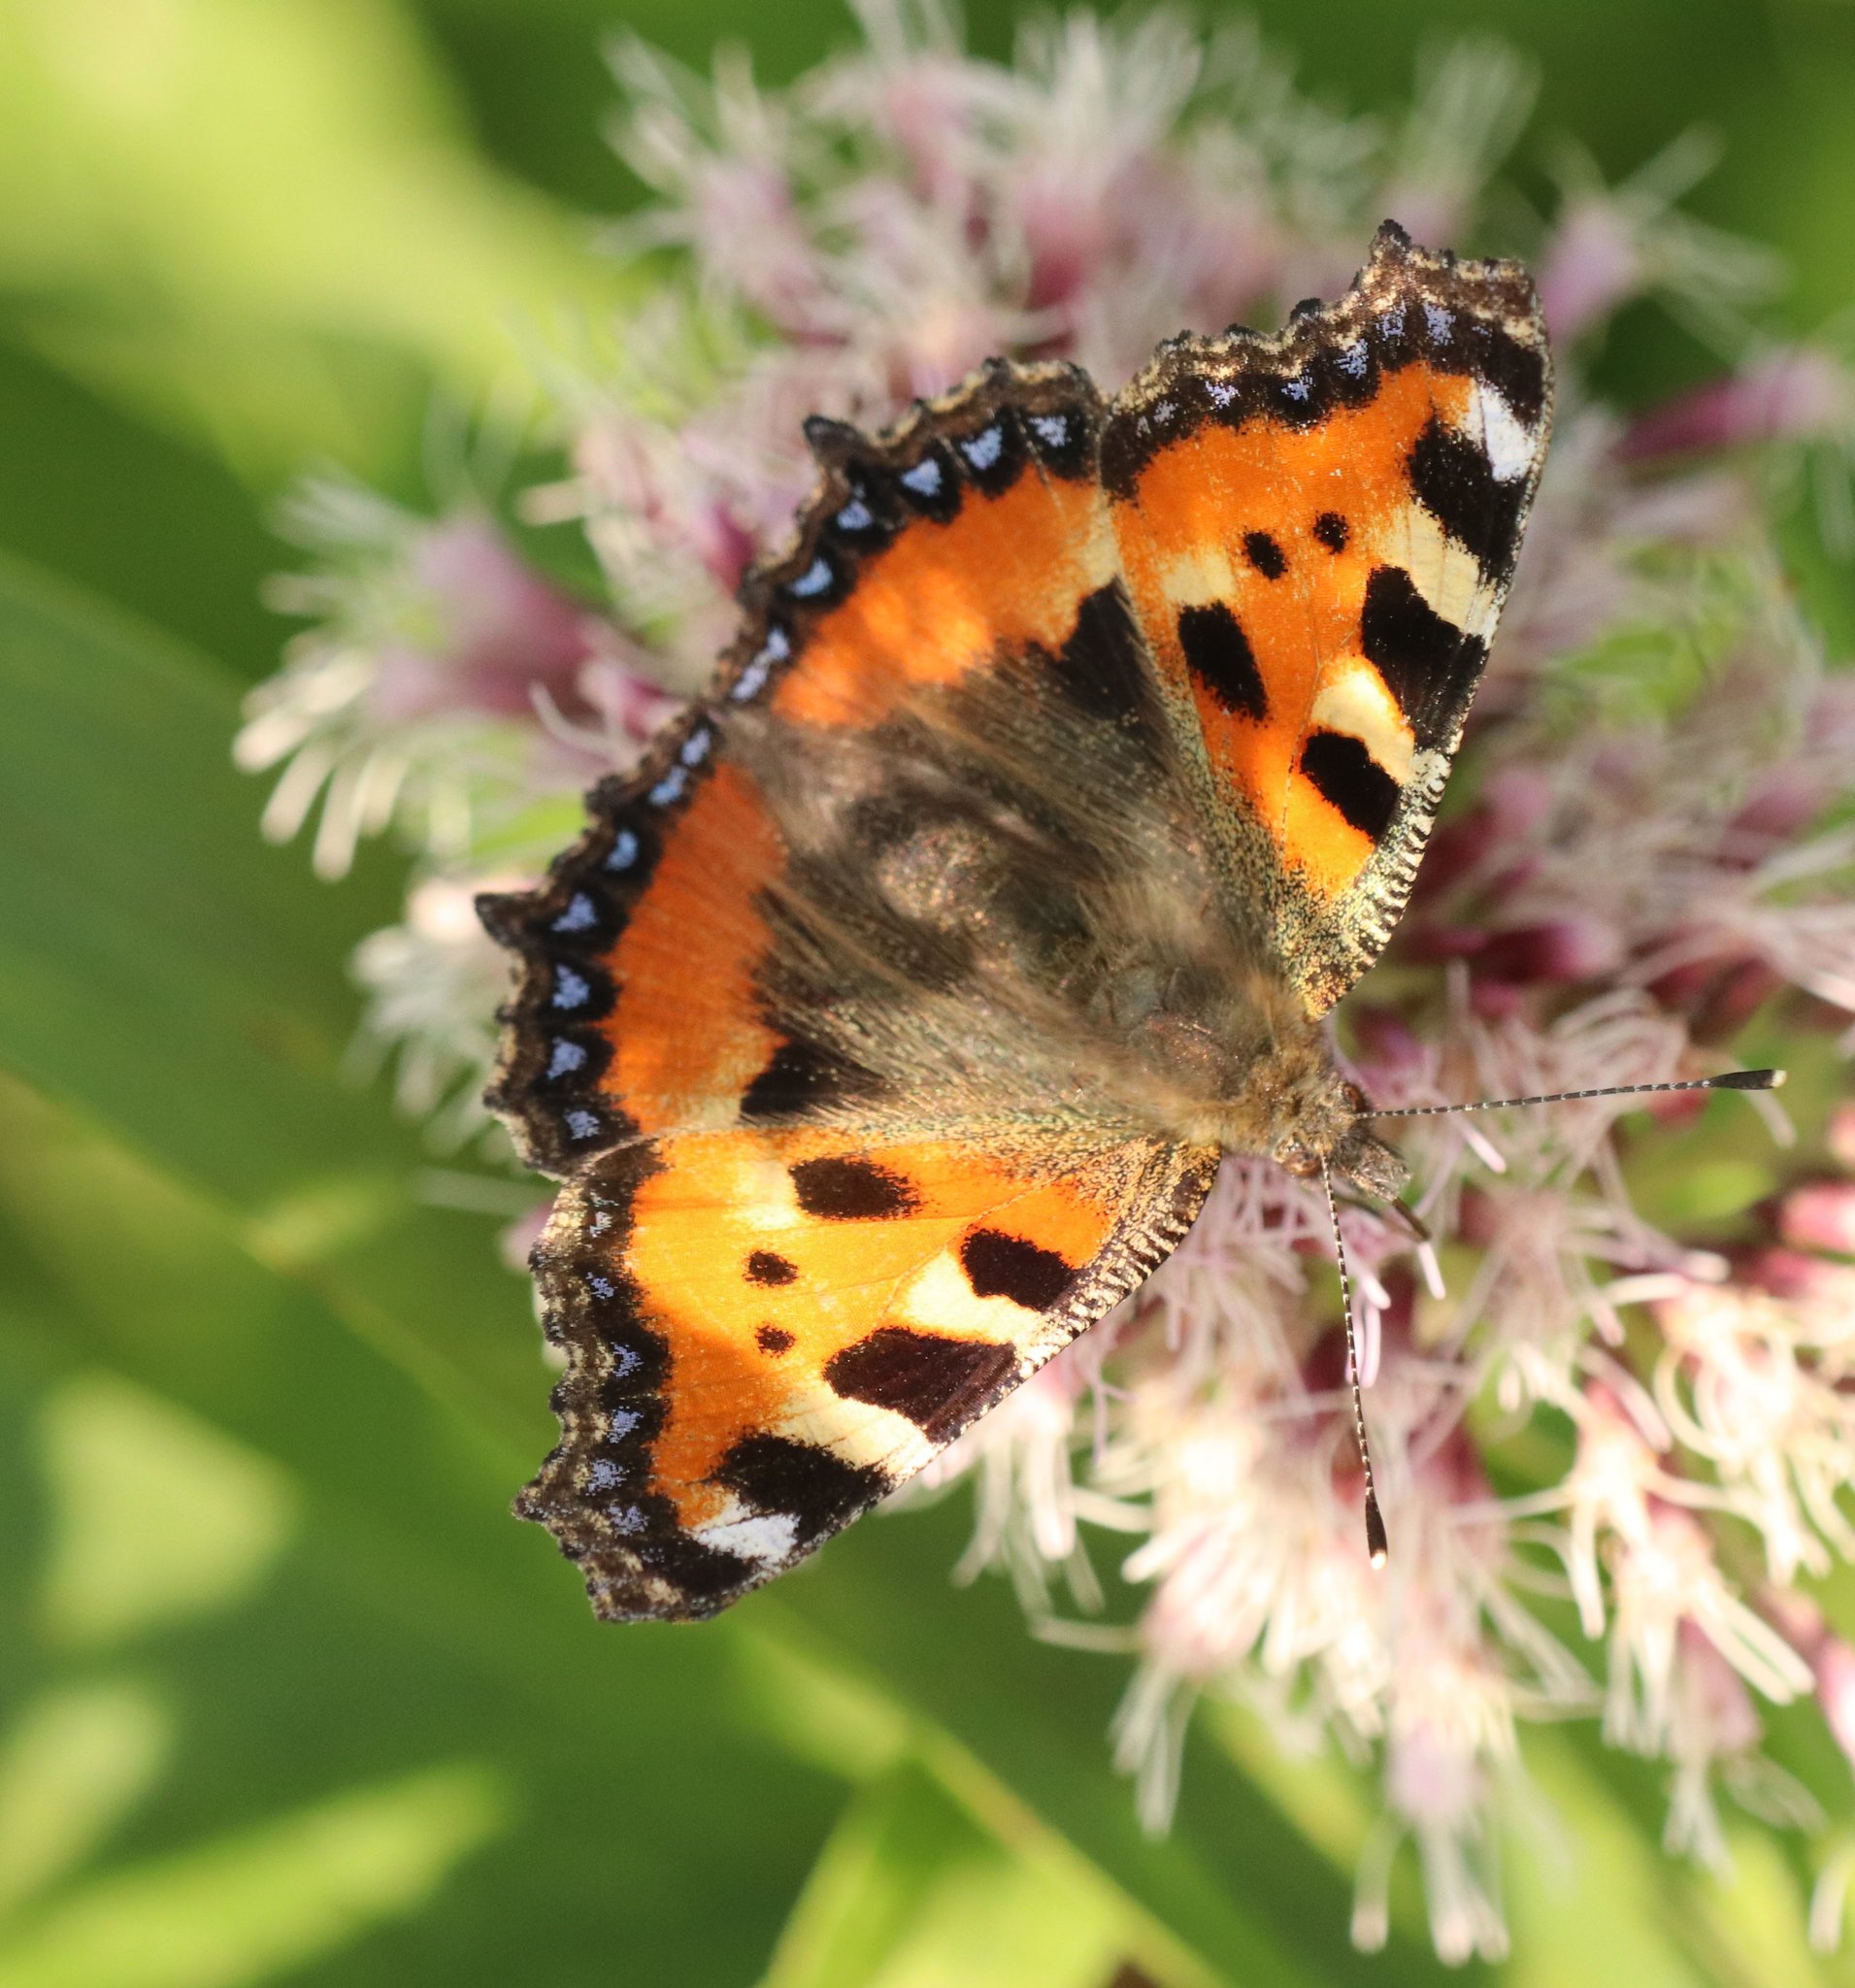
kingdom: Animalia
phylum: Arthropoda
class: Insecta
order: Lepidoptera
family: Nymphalidae
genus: Aglais
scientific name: Aglais urticae
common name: Small tortoiseshell
